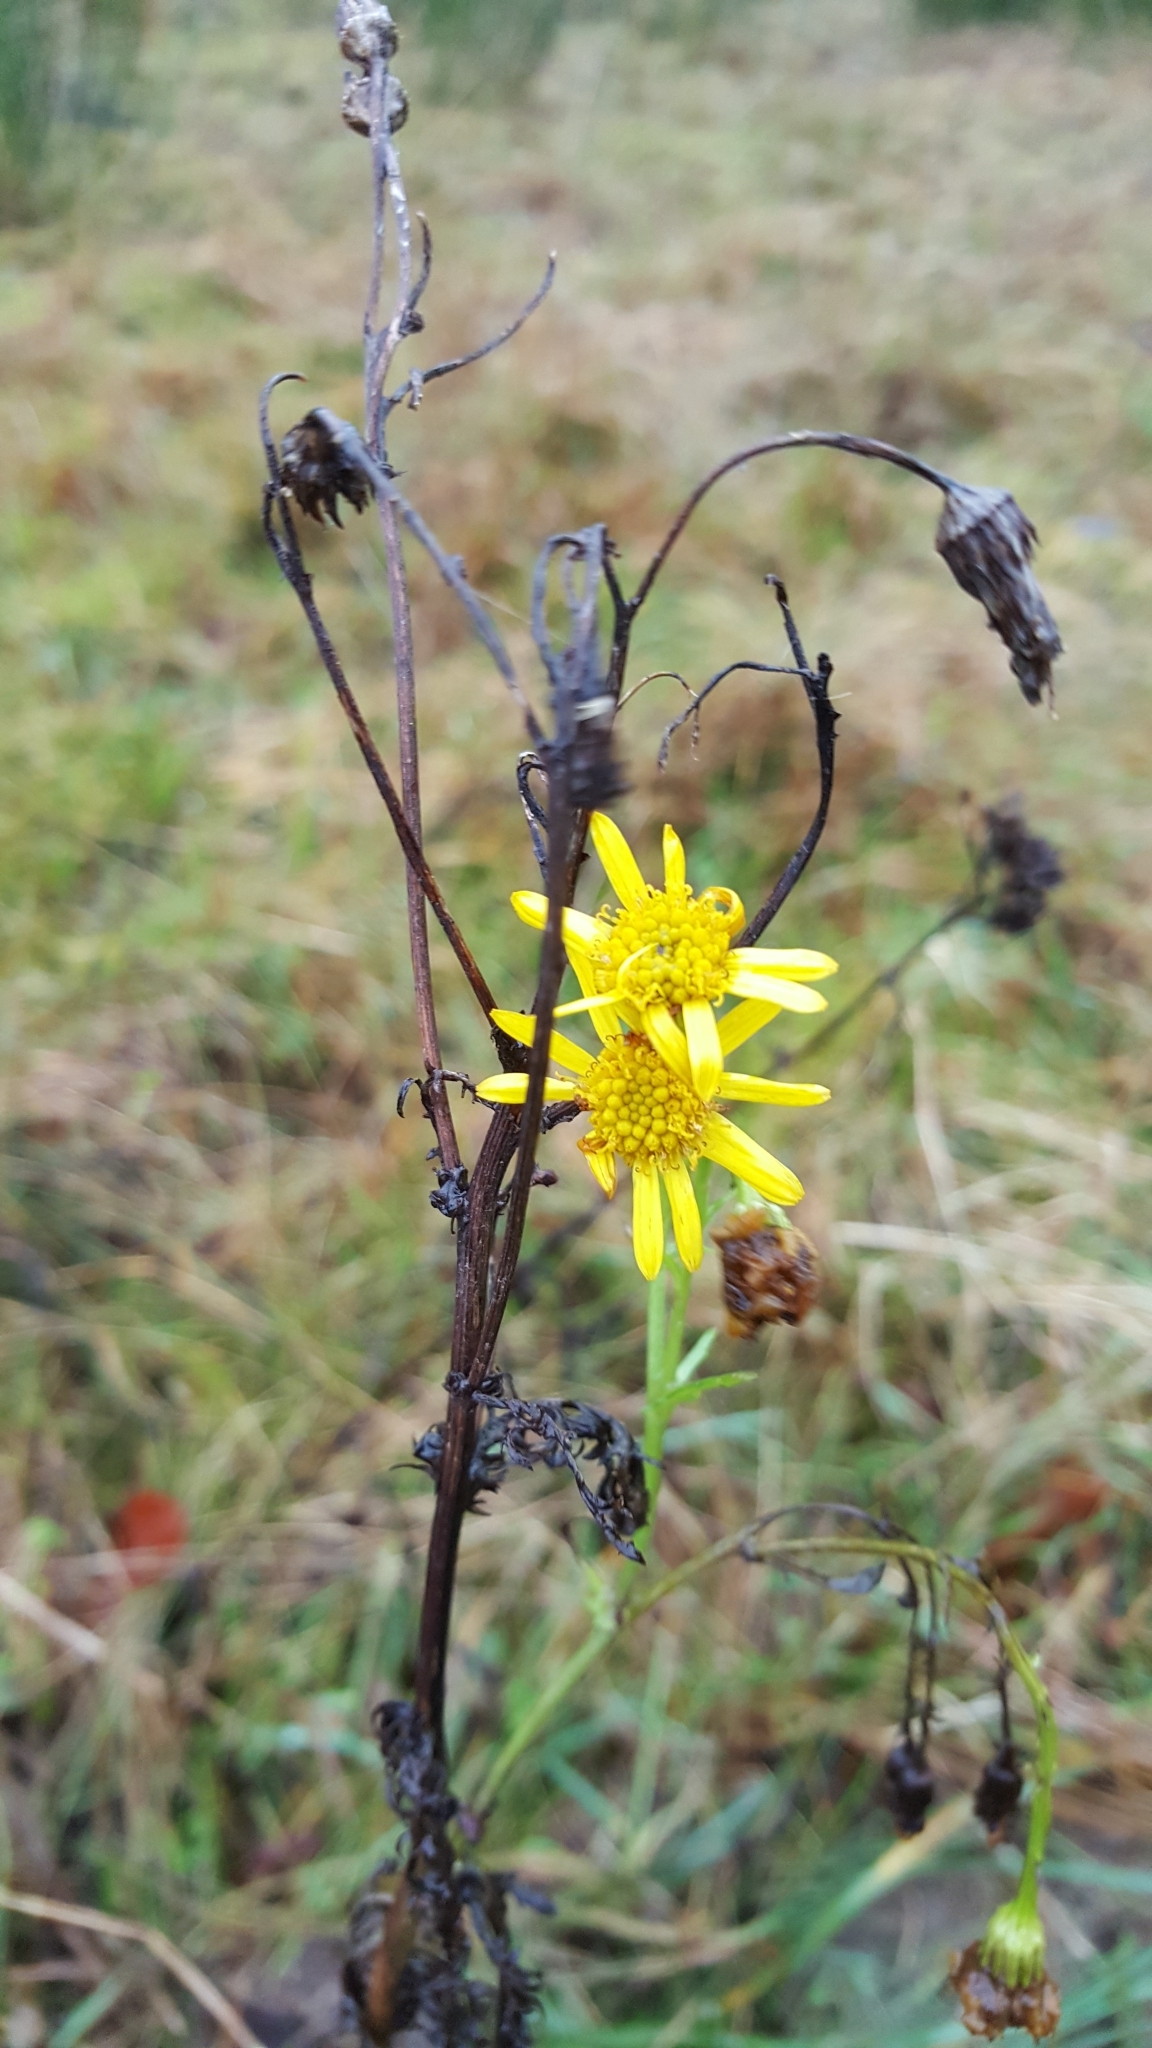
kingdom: Plantae
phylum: Tracheophyta
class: Magnoliopsida
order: Asterales
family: Asteraceae
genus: Jacobaea
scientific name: Jacobaea vulgaris
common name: Stinking willie
